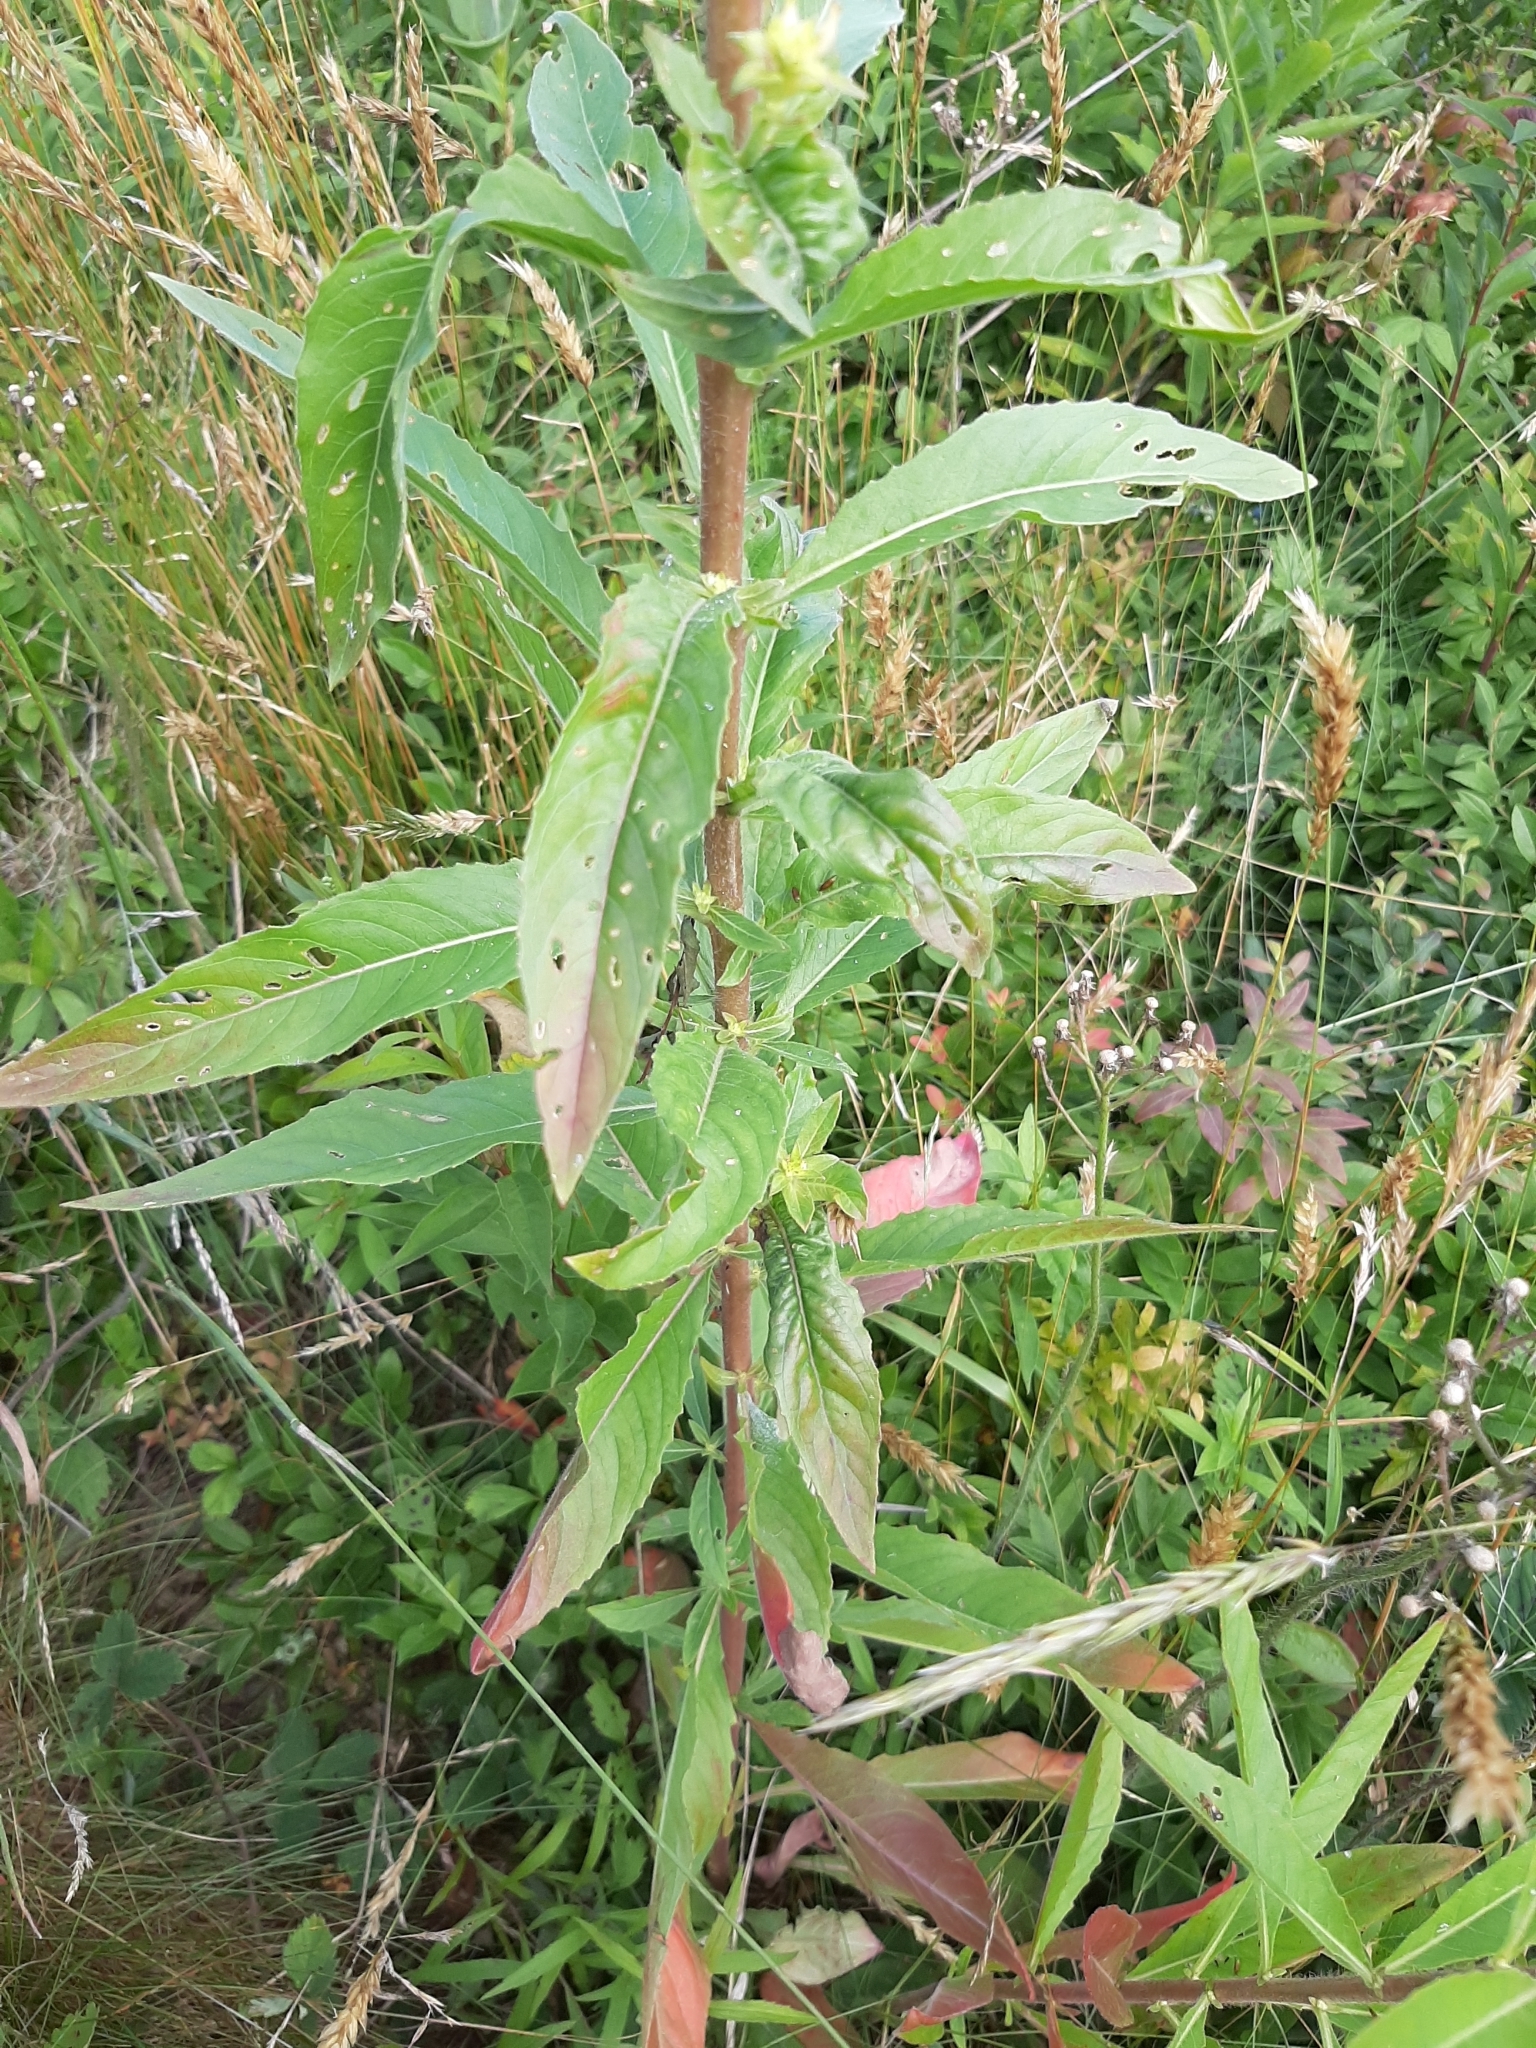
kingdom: Plantae
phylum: Tracheophyta
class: Magnoliopsida
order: Myrtales
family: Onagraceae
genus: Oenothera
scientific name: Oenothera biennis
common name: Common evening-primrose
